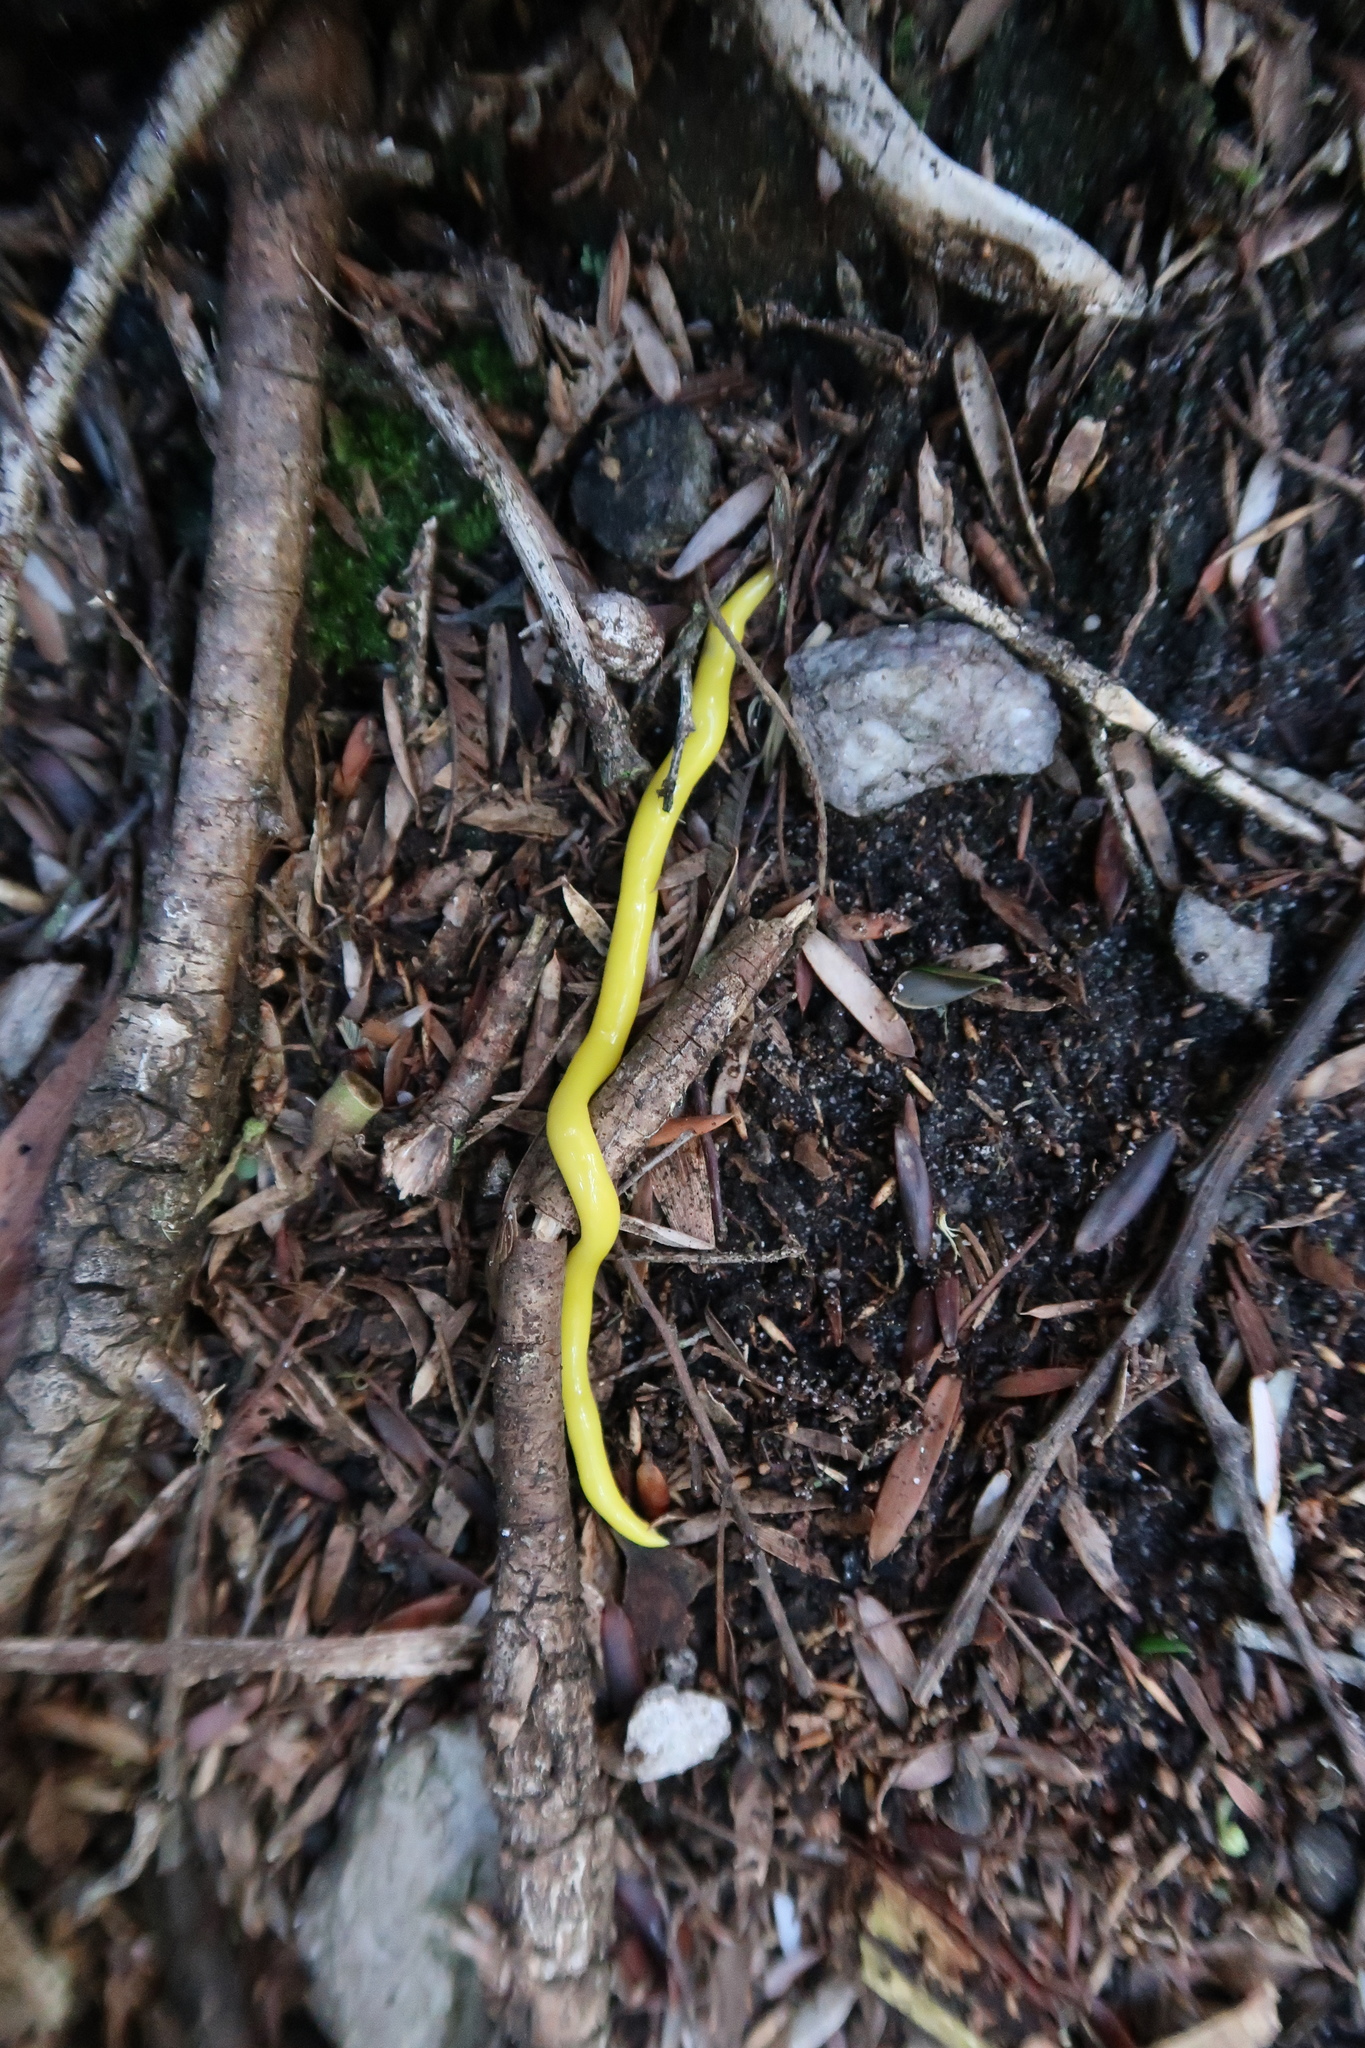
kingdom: Animalia
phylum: Platyhelminthes
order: Tricladida
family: Geoplanidae
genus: Fletchamia
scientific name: Fletchamia sugdeni
